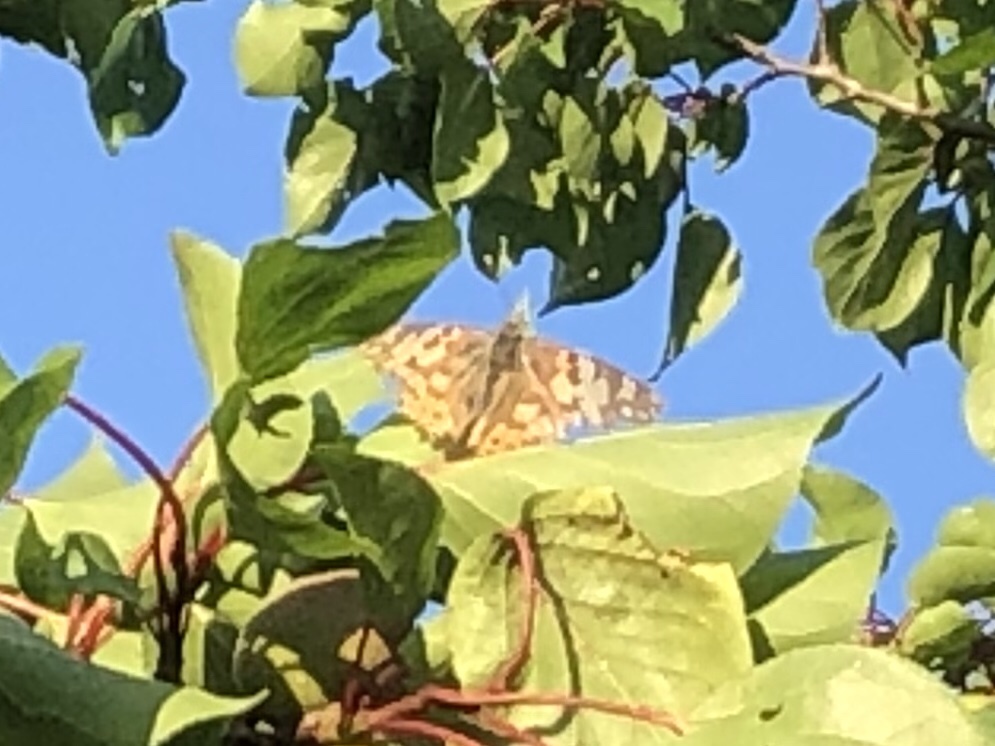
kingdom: Animalia
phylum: Arthropoda
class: Insecta
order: Lepidoptera
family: Nymphalidae
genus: Vanessa
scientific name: Vanessa cardui
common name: Painted lady
